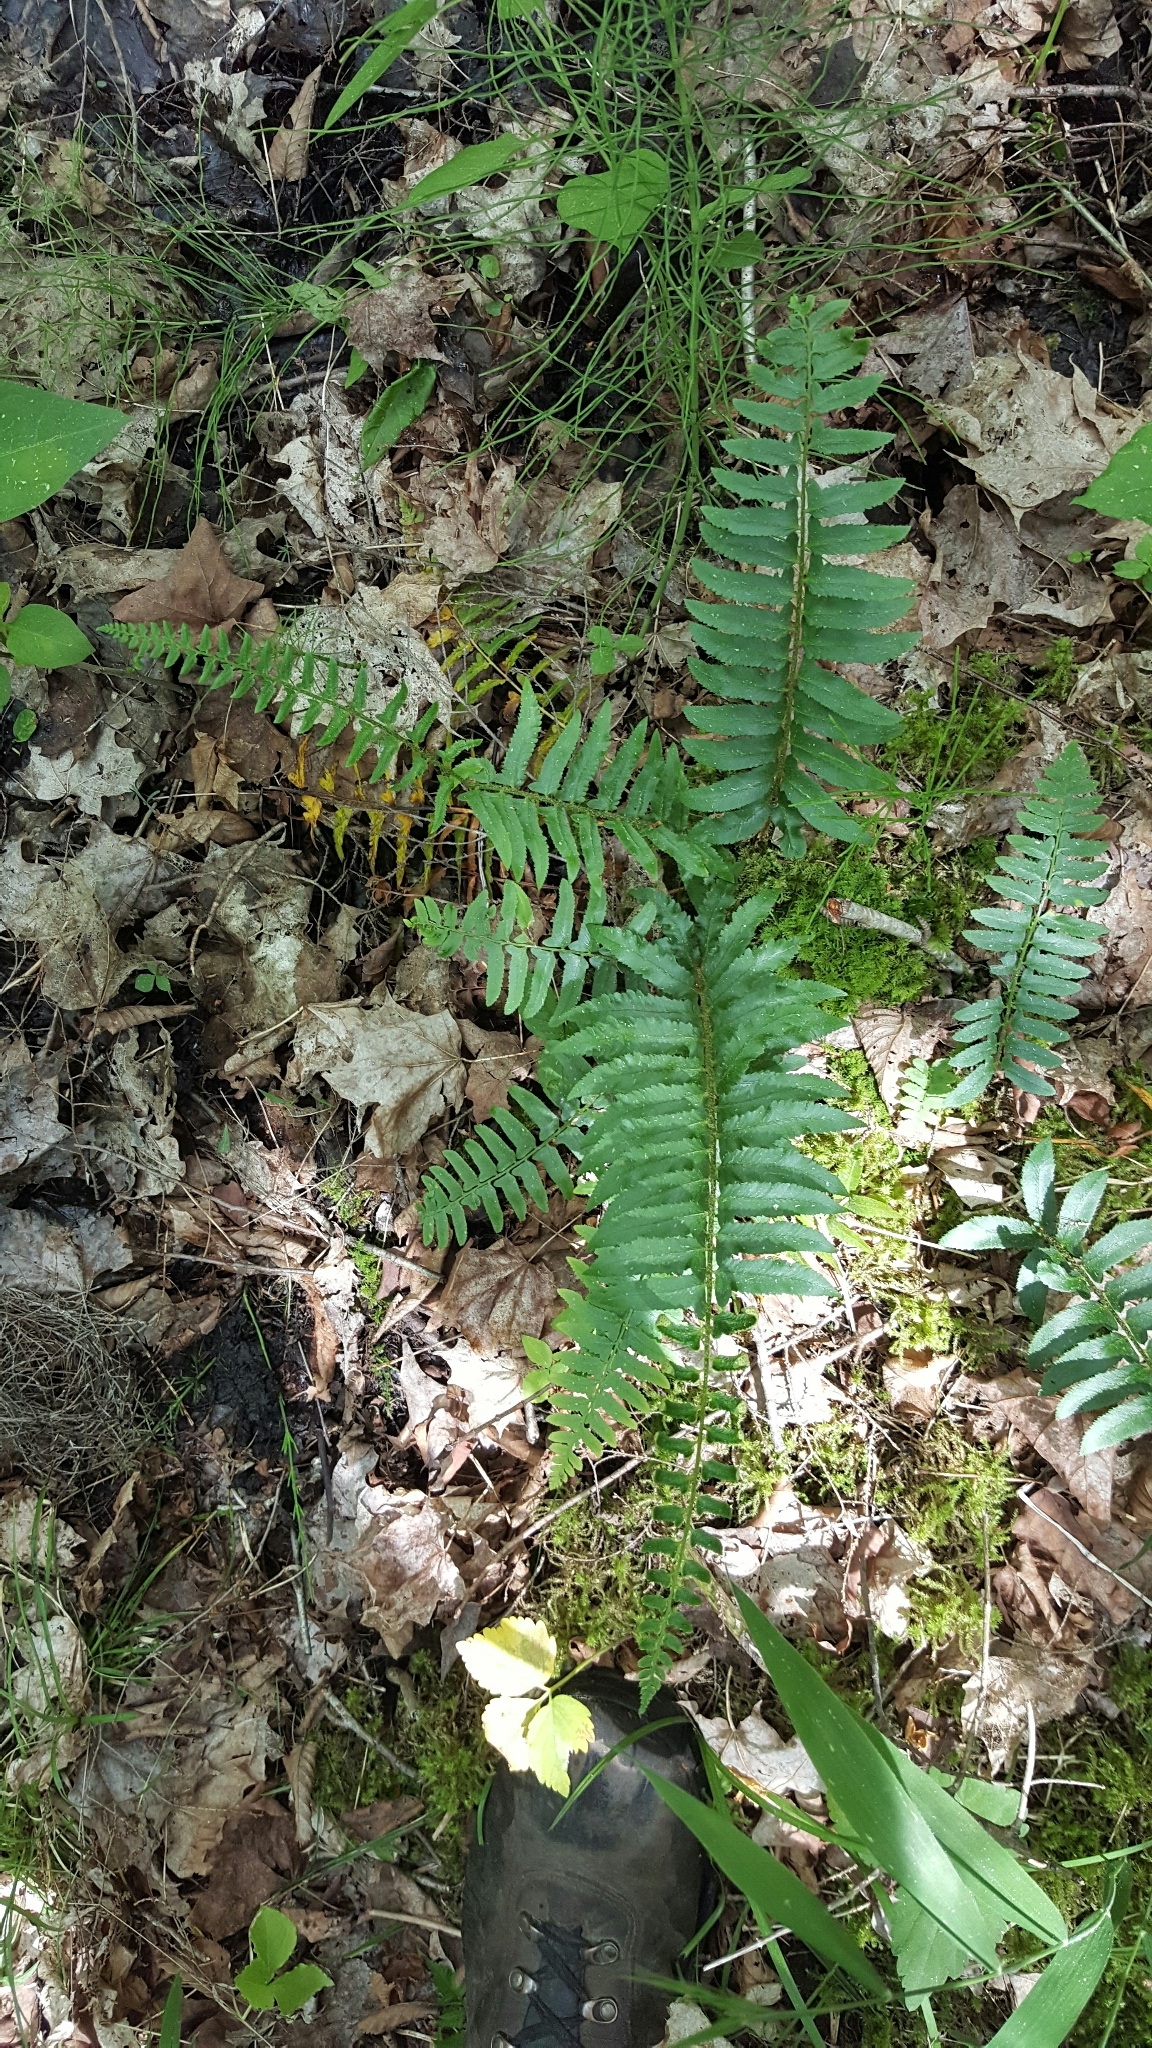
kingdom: Plantae
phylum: Tracheophyta
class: Polypodiopsida
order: Polypodiales
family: Dryopteridaceae
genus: Polystichum
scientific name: Polystichum acrostichoides
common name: Christmas fern
